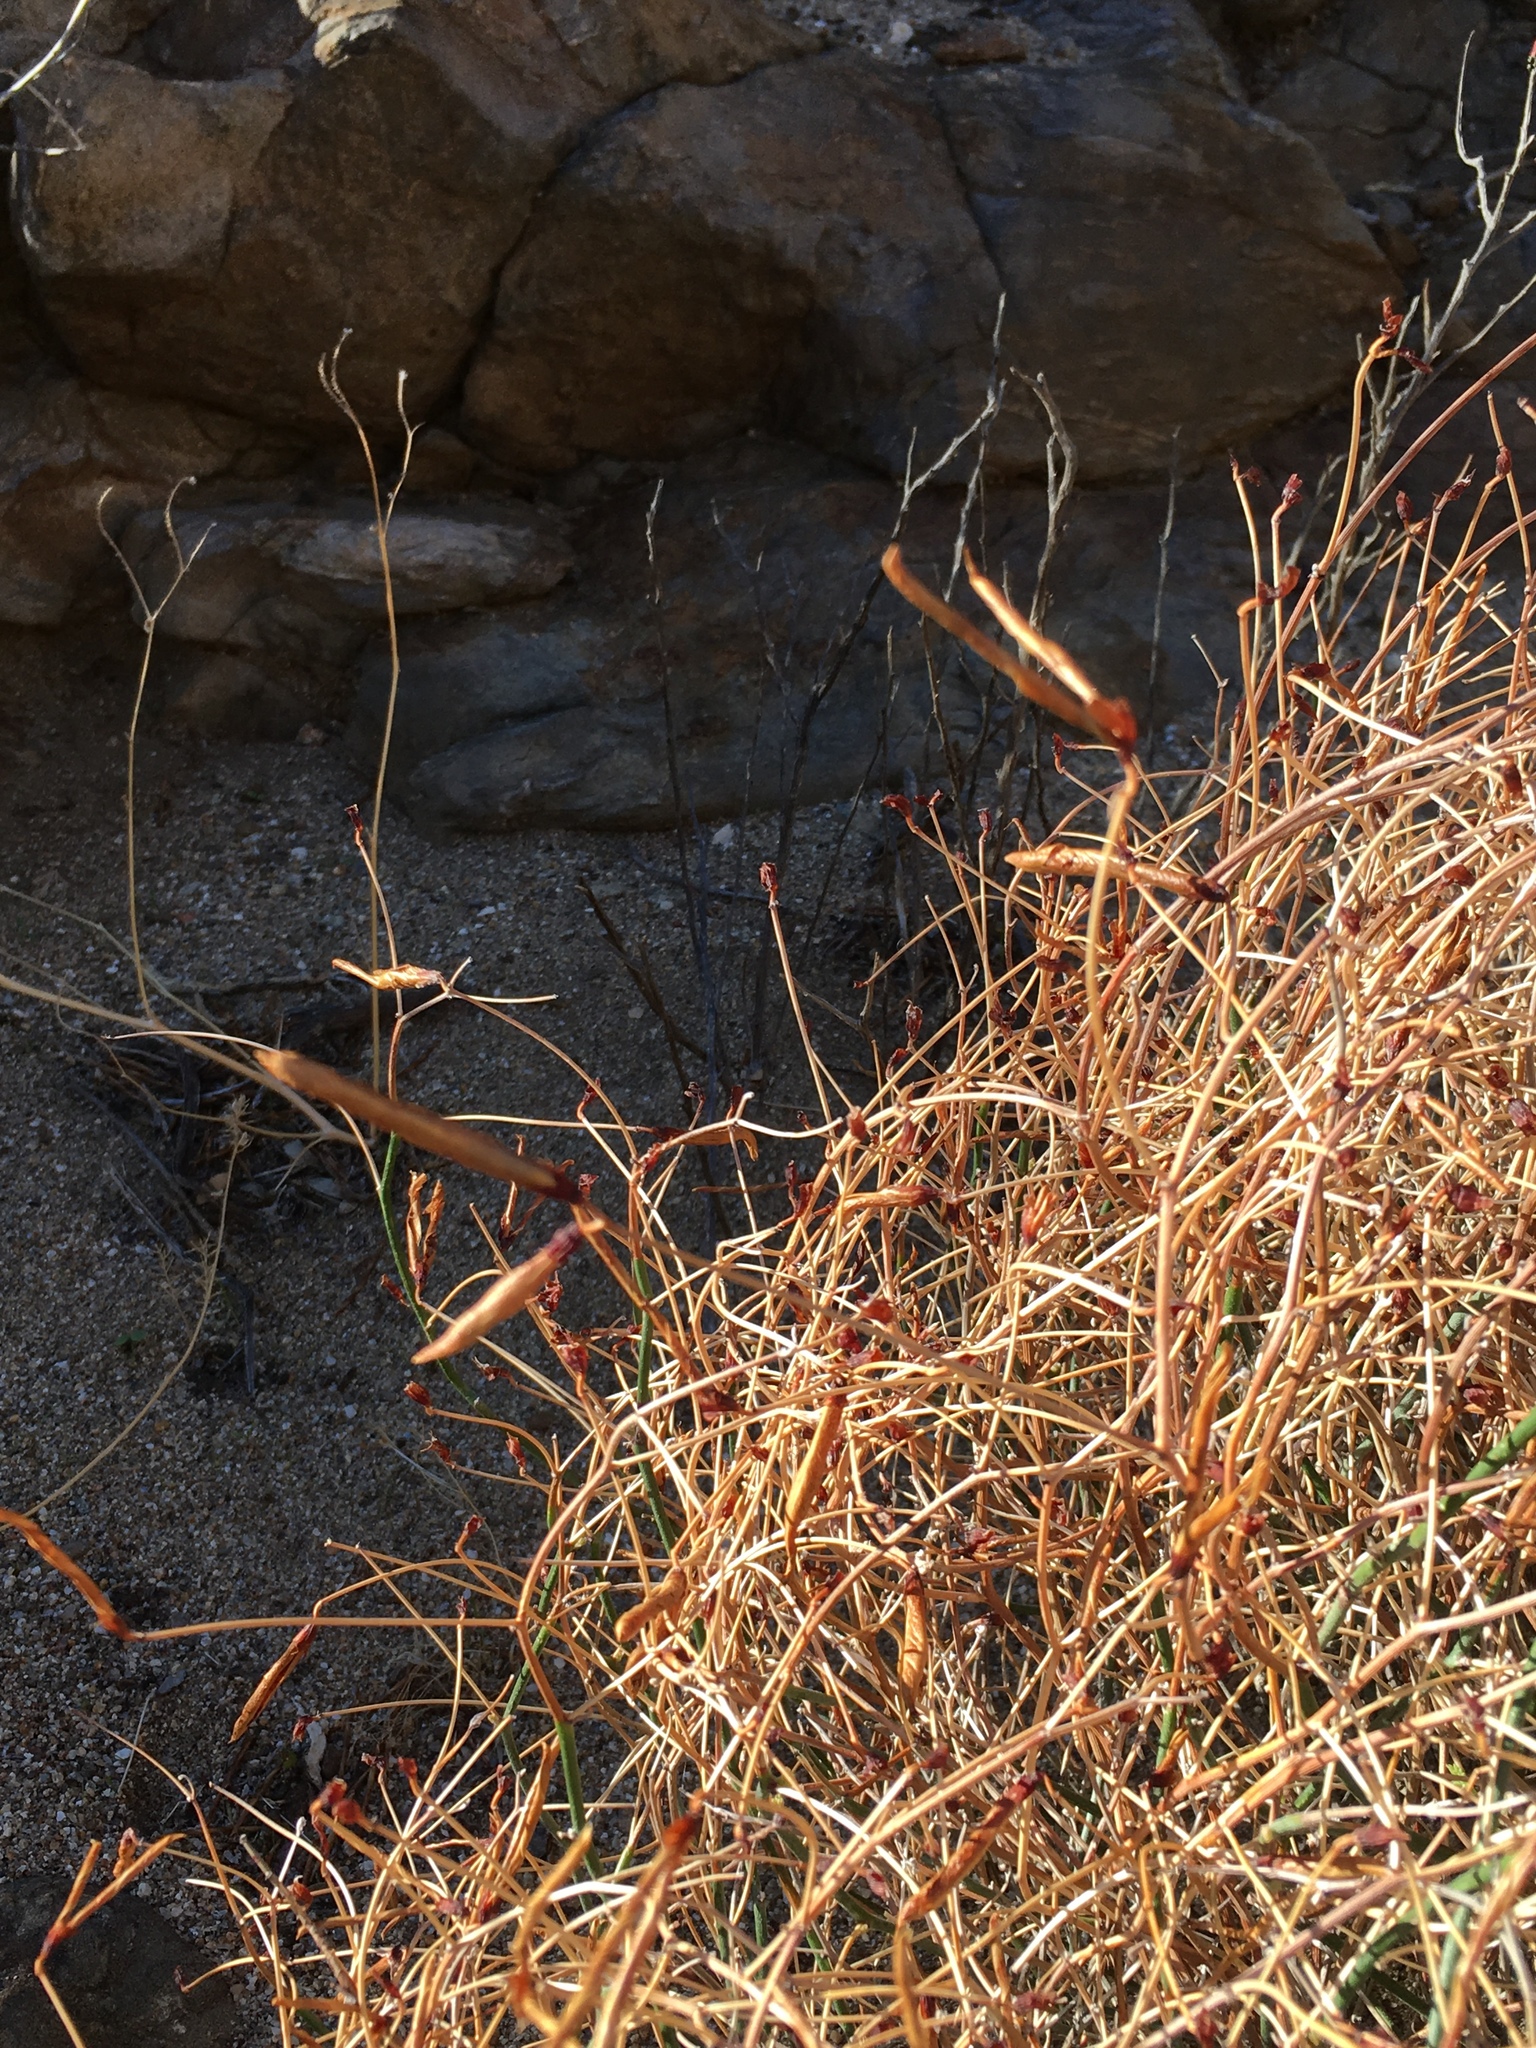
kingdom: Plantae
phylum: Tracheophyta
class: Magnoliopsida
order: Fabales
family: Fabaceae
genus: Acmispon
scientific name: Acmispon rigidus
